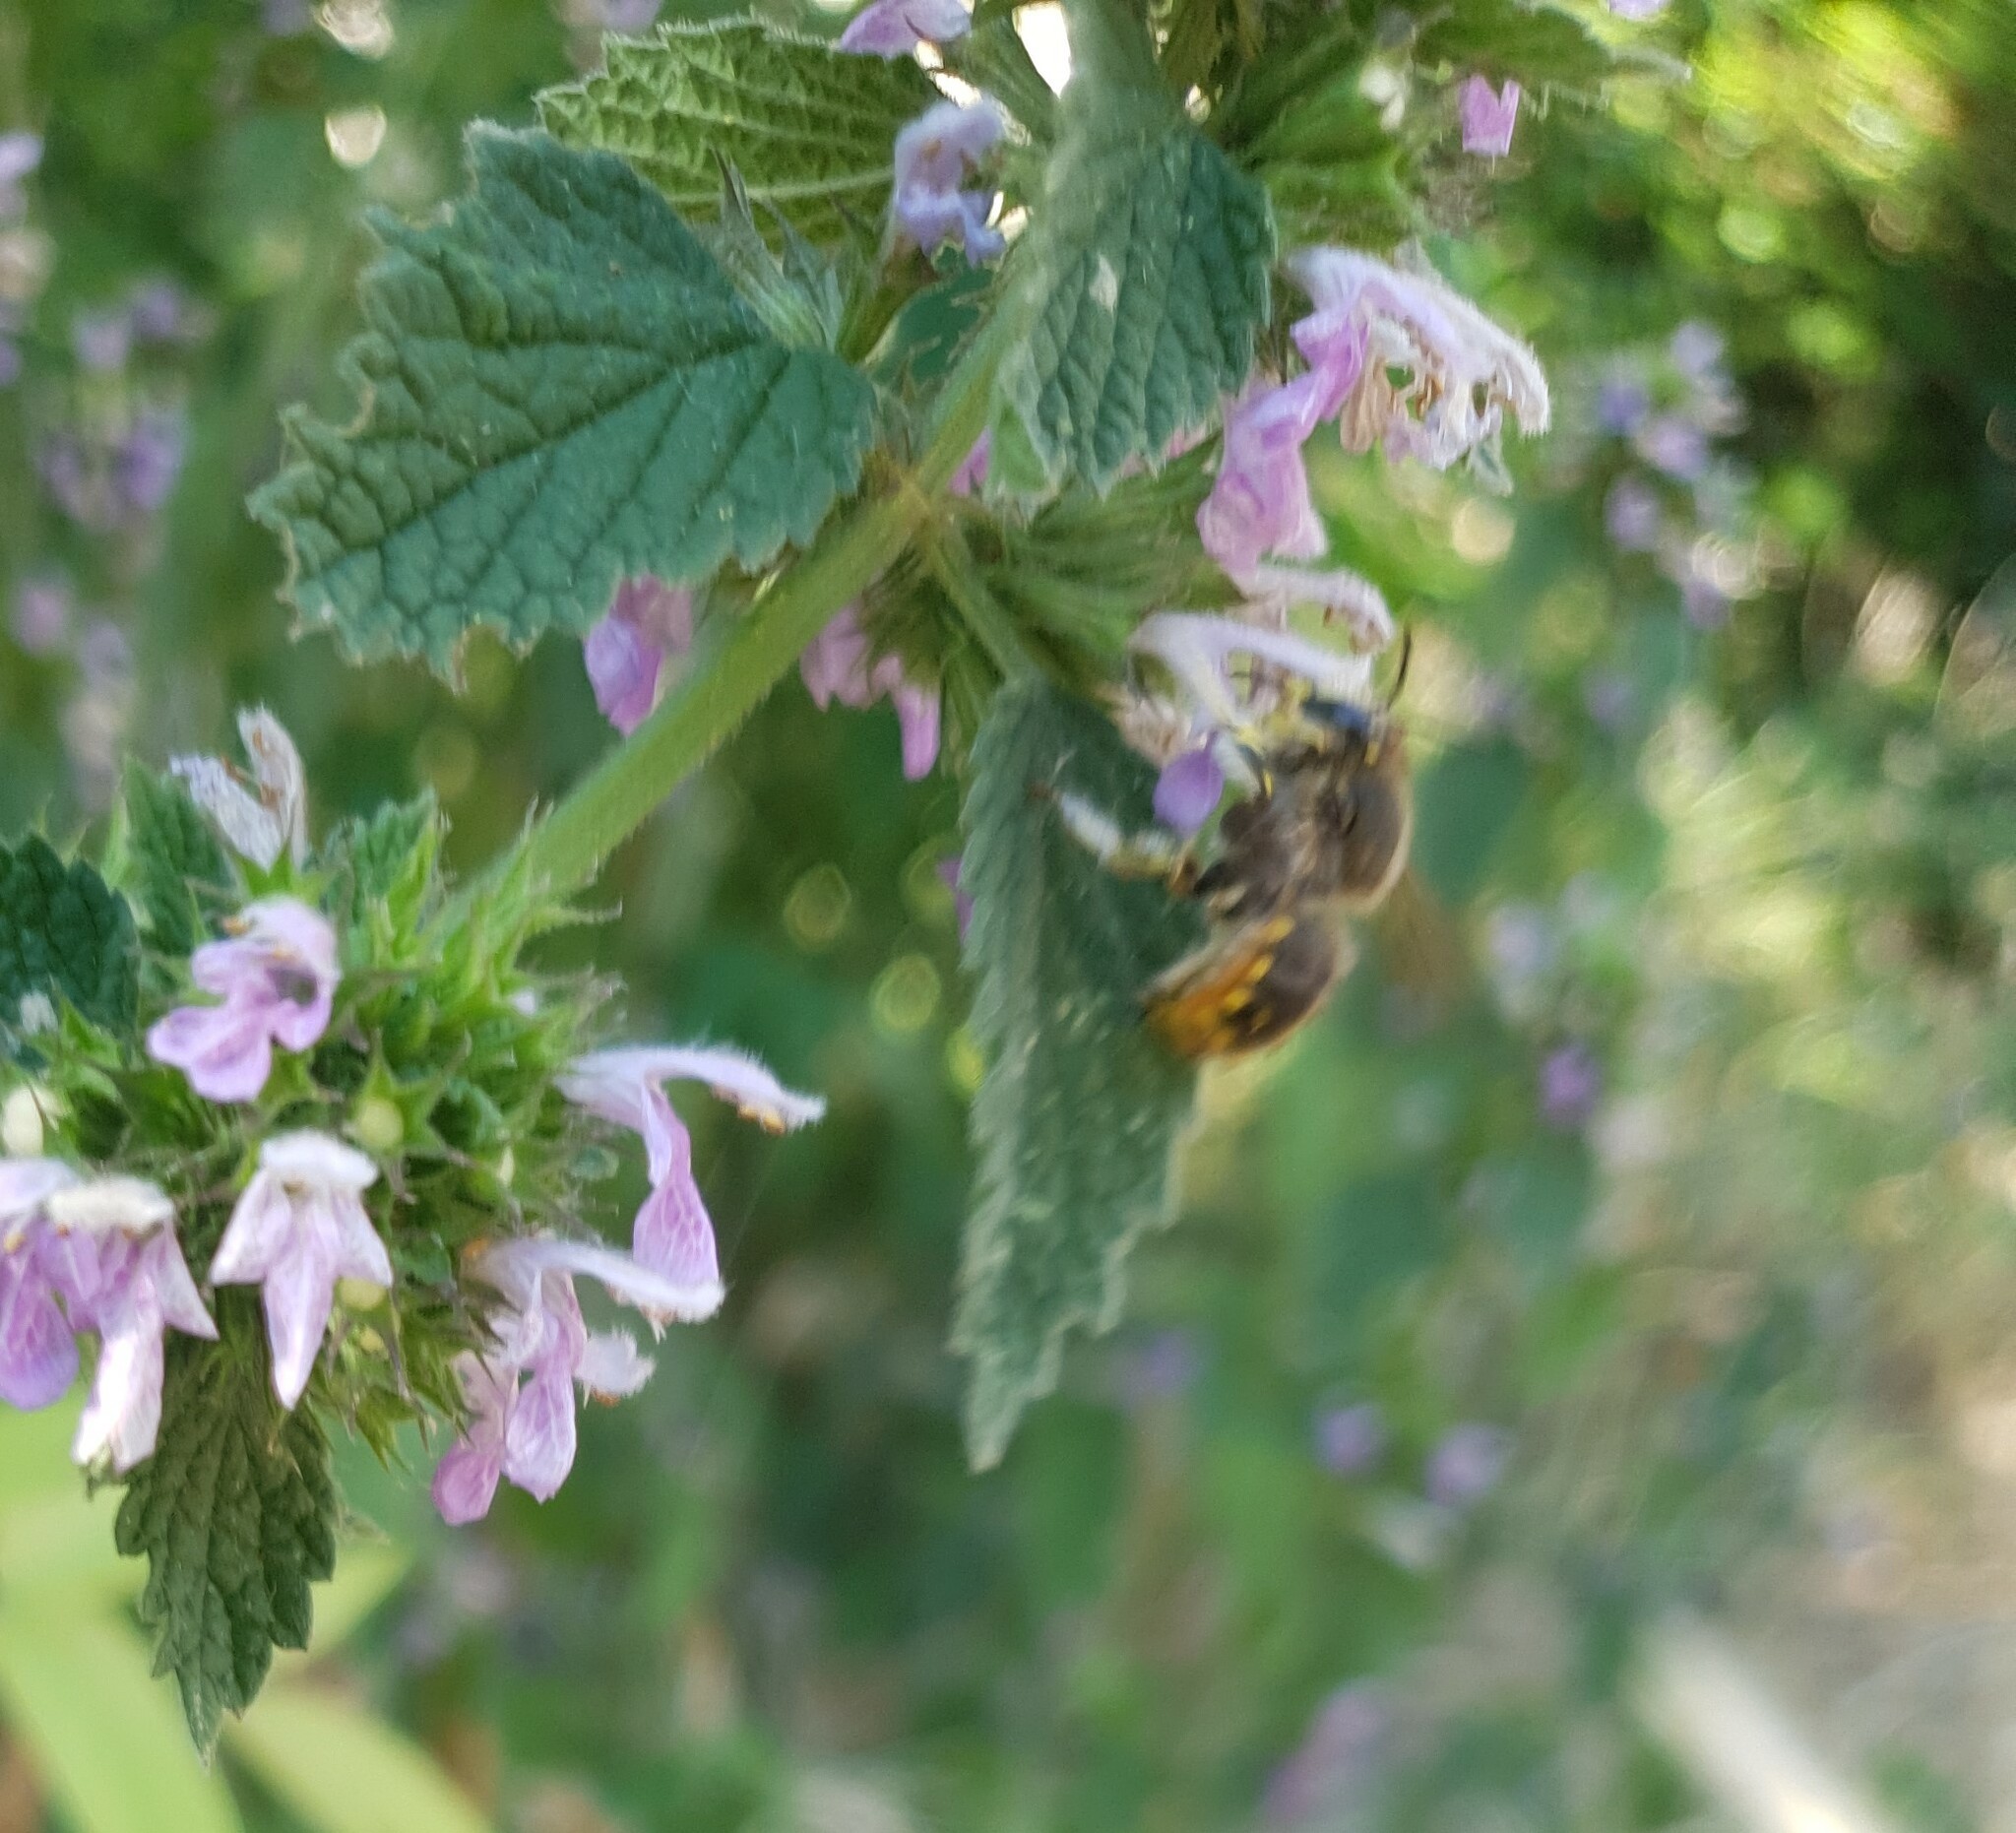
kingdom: Animalia
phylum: Arthropoda
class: Insecta
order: Hymenoptera
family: Megachilidae
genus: Anthidium
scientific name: Anthidium manicatum
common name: Wool carder bee
